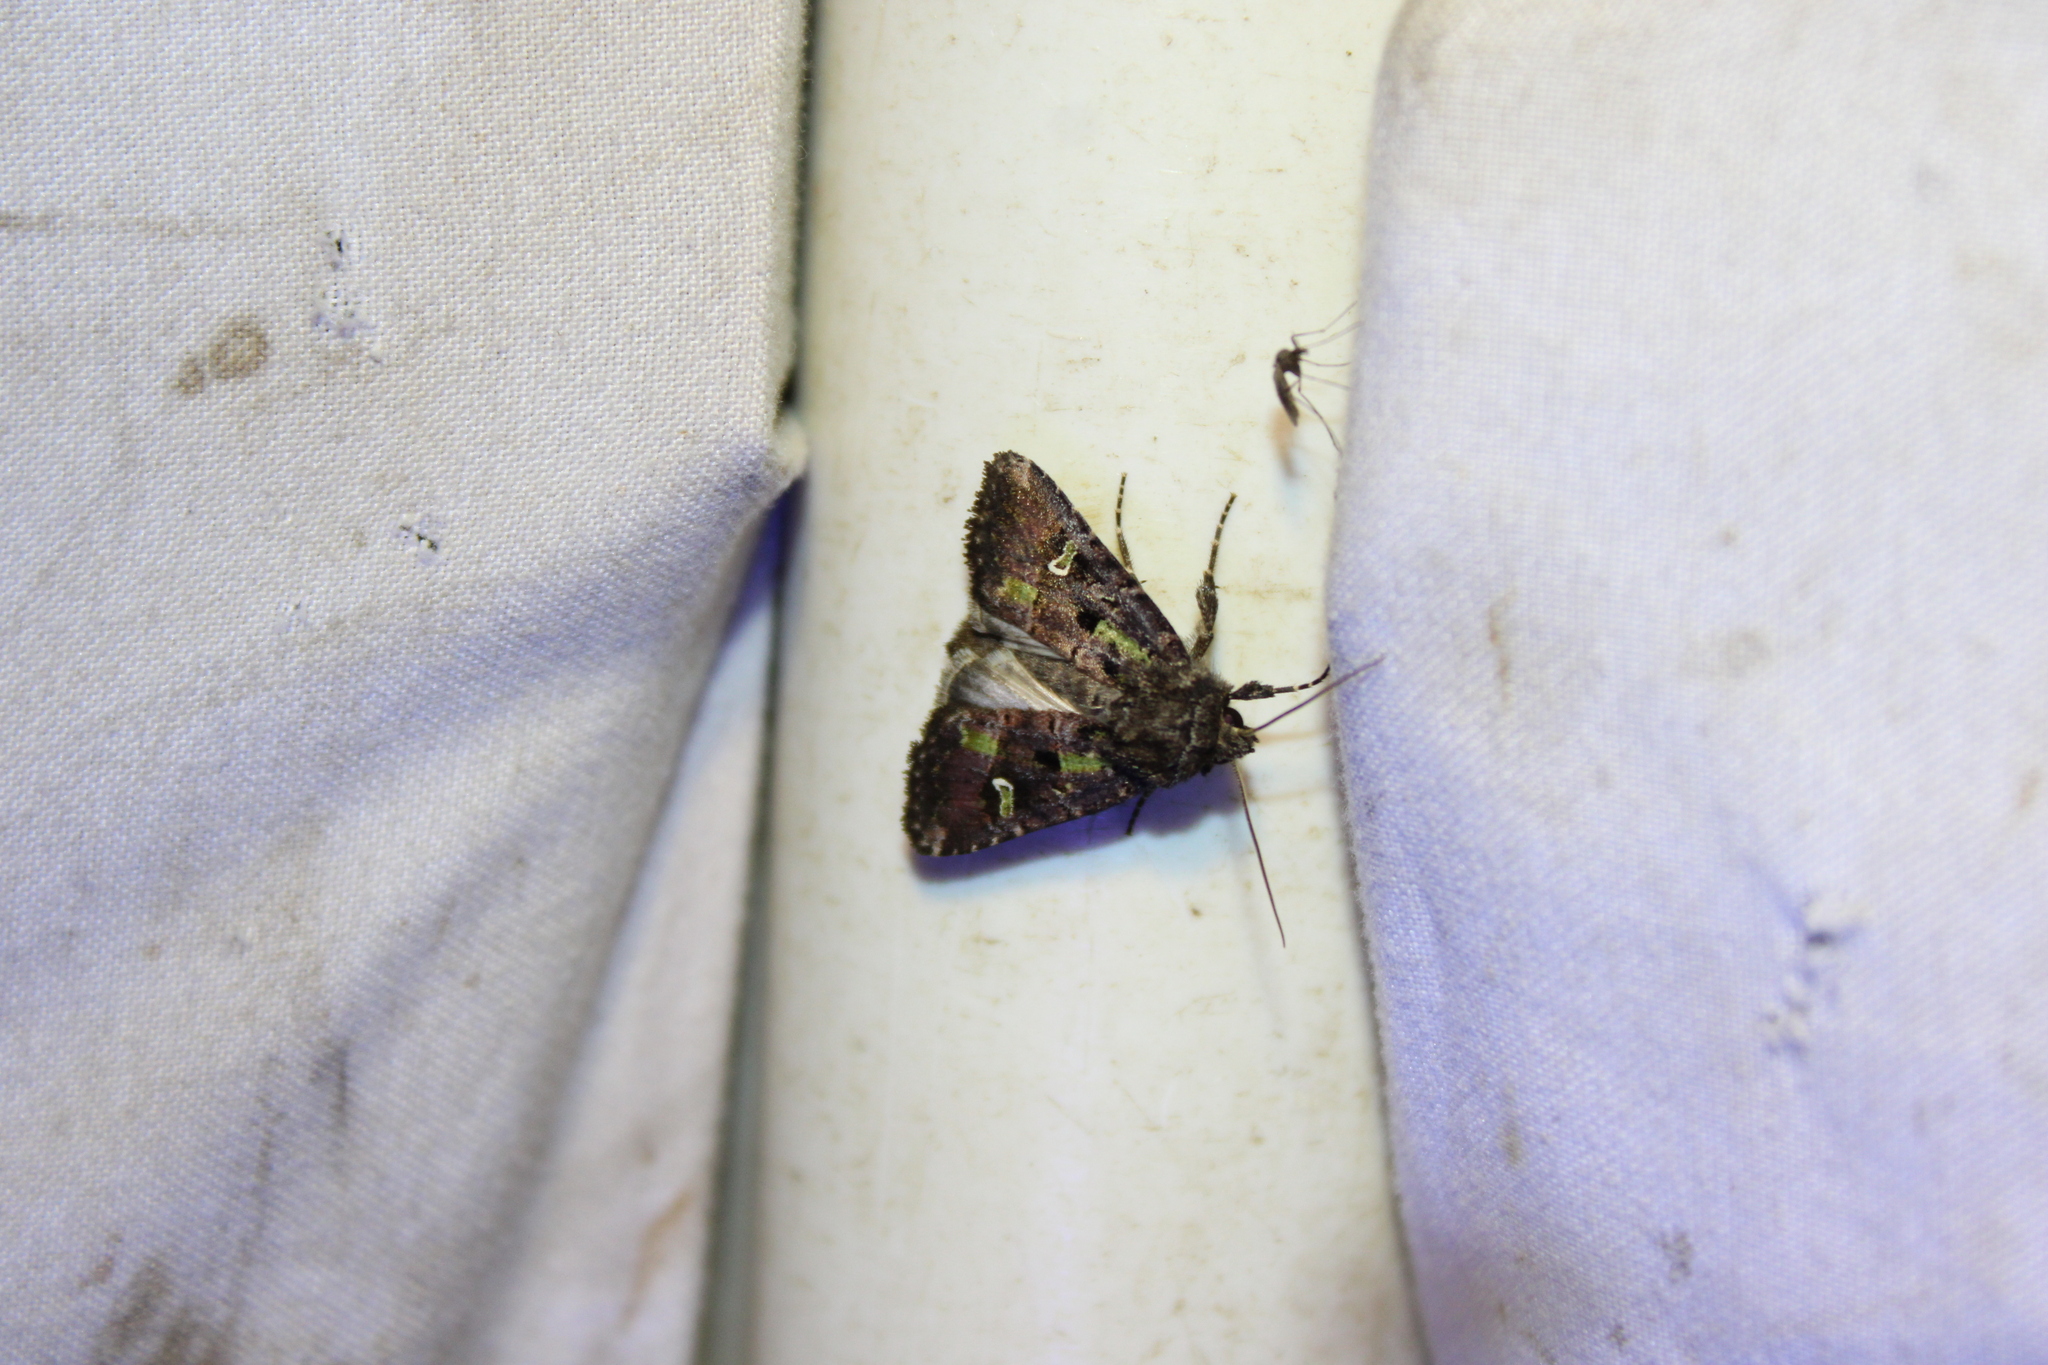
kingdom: Animalia
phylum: Arthropoda
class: Insecta
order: Lepidoptera
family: Noctuidae
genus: Lacinipolia
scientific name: Lacinipolia renigera
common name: Kidney-spotted minor
